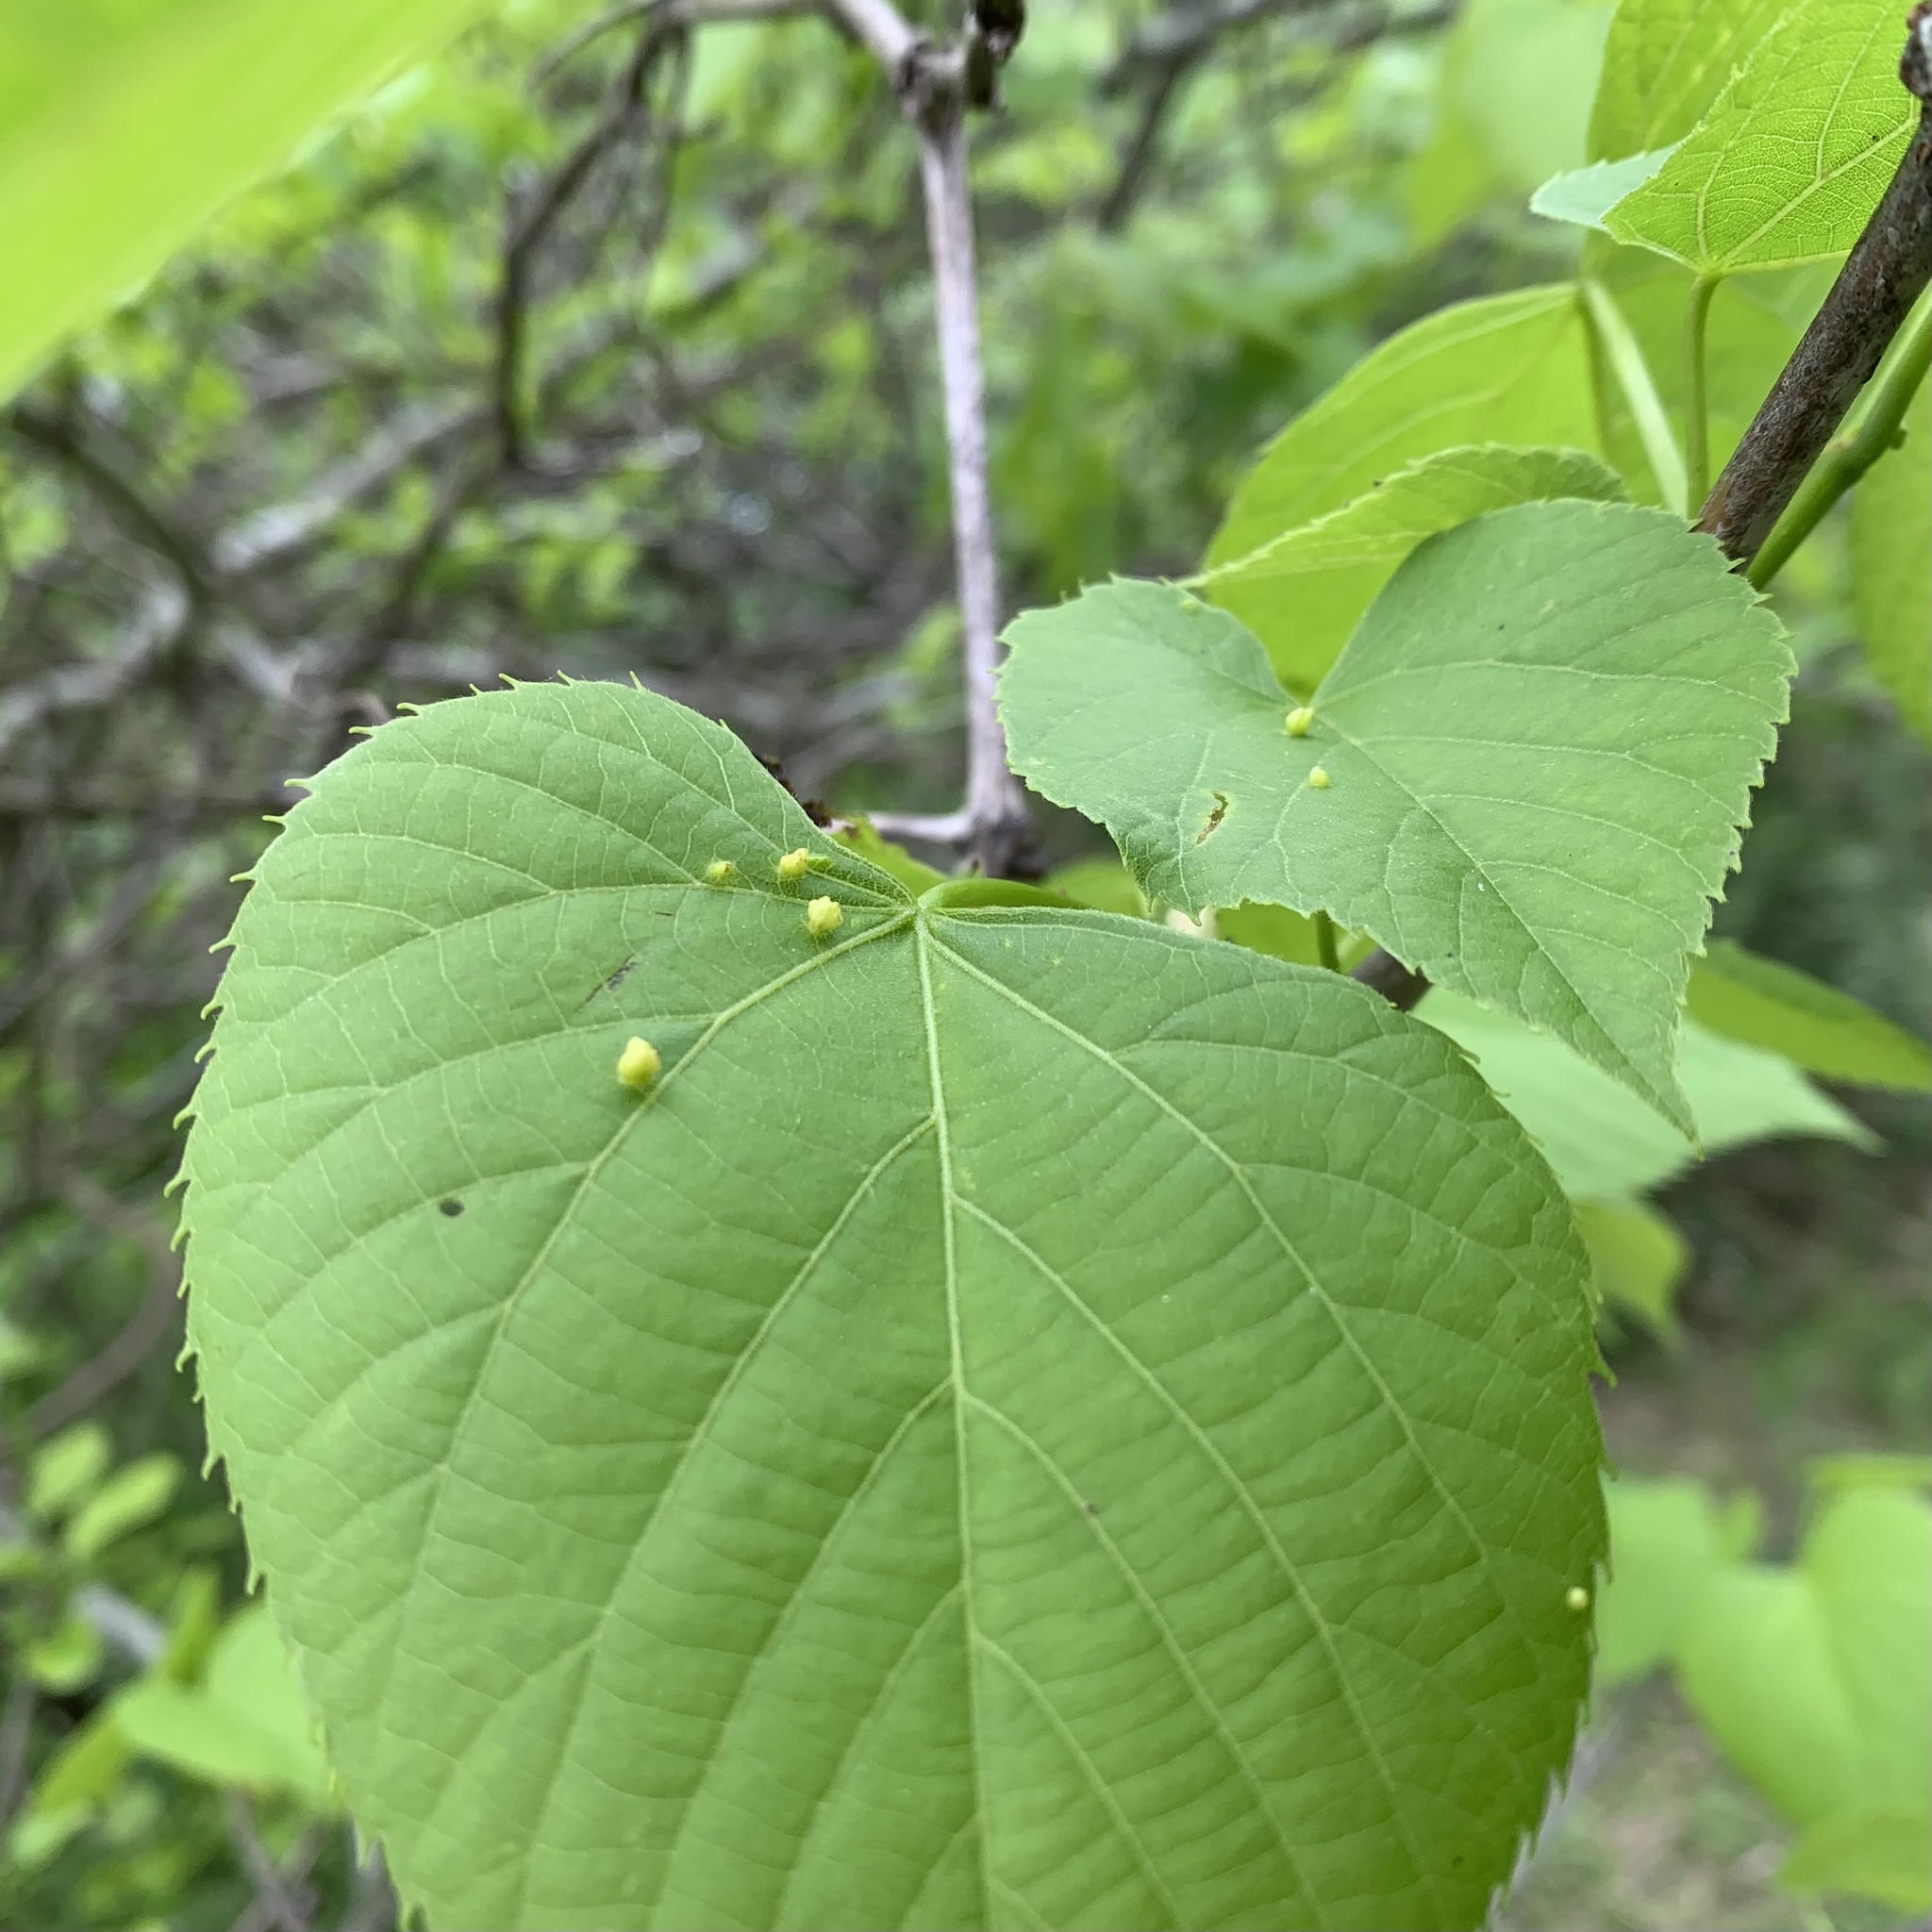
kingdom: Animalia
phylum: Arthropoda
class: Arachnida
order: Trombidiformes
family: Eriophyidae
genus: Eriophyes
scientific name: Eriophyes tiliae
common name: Red nail gall mite
